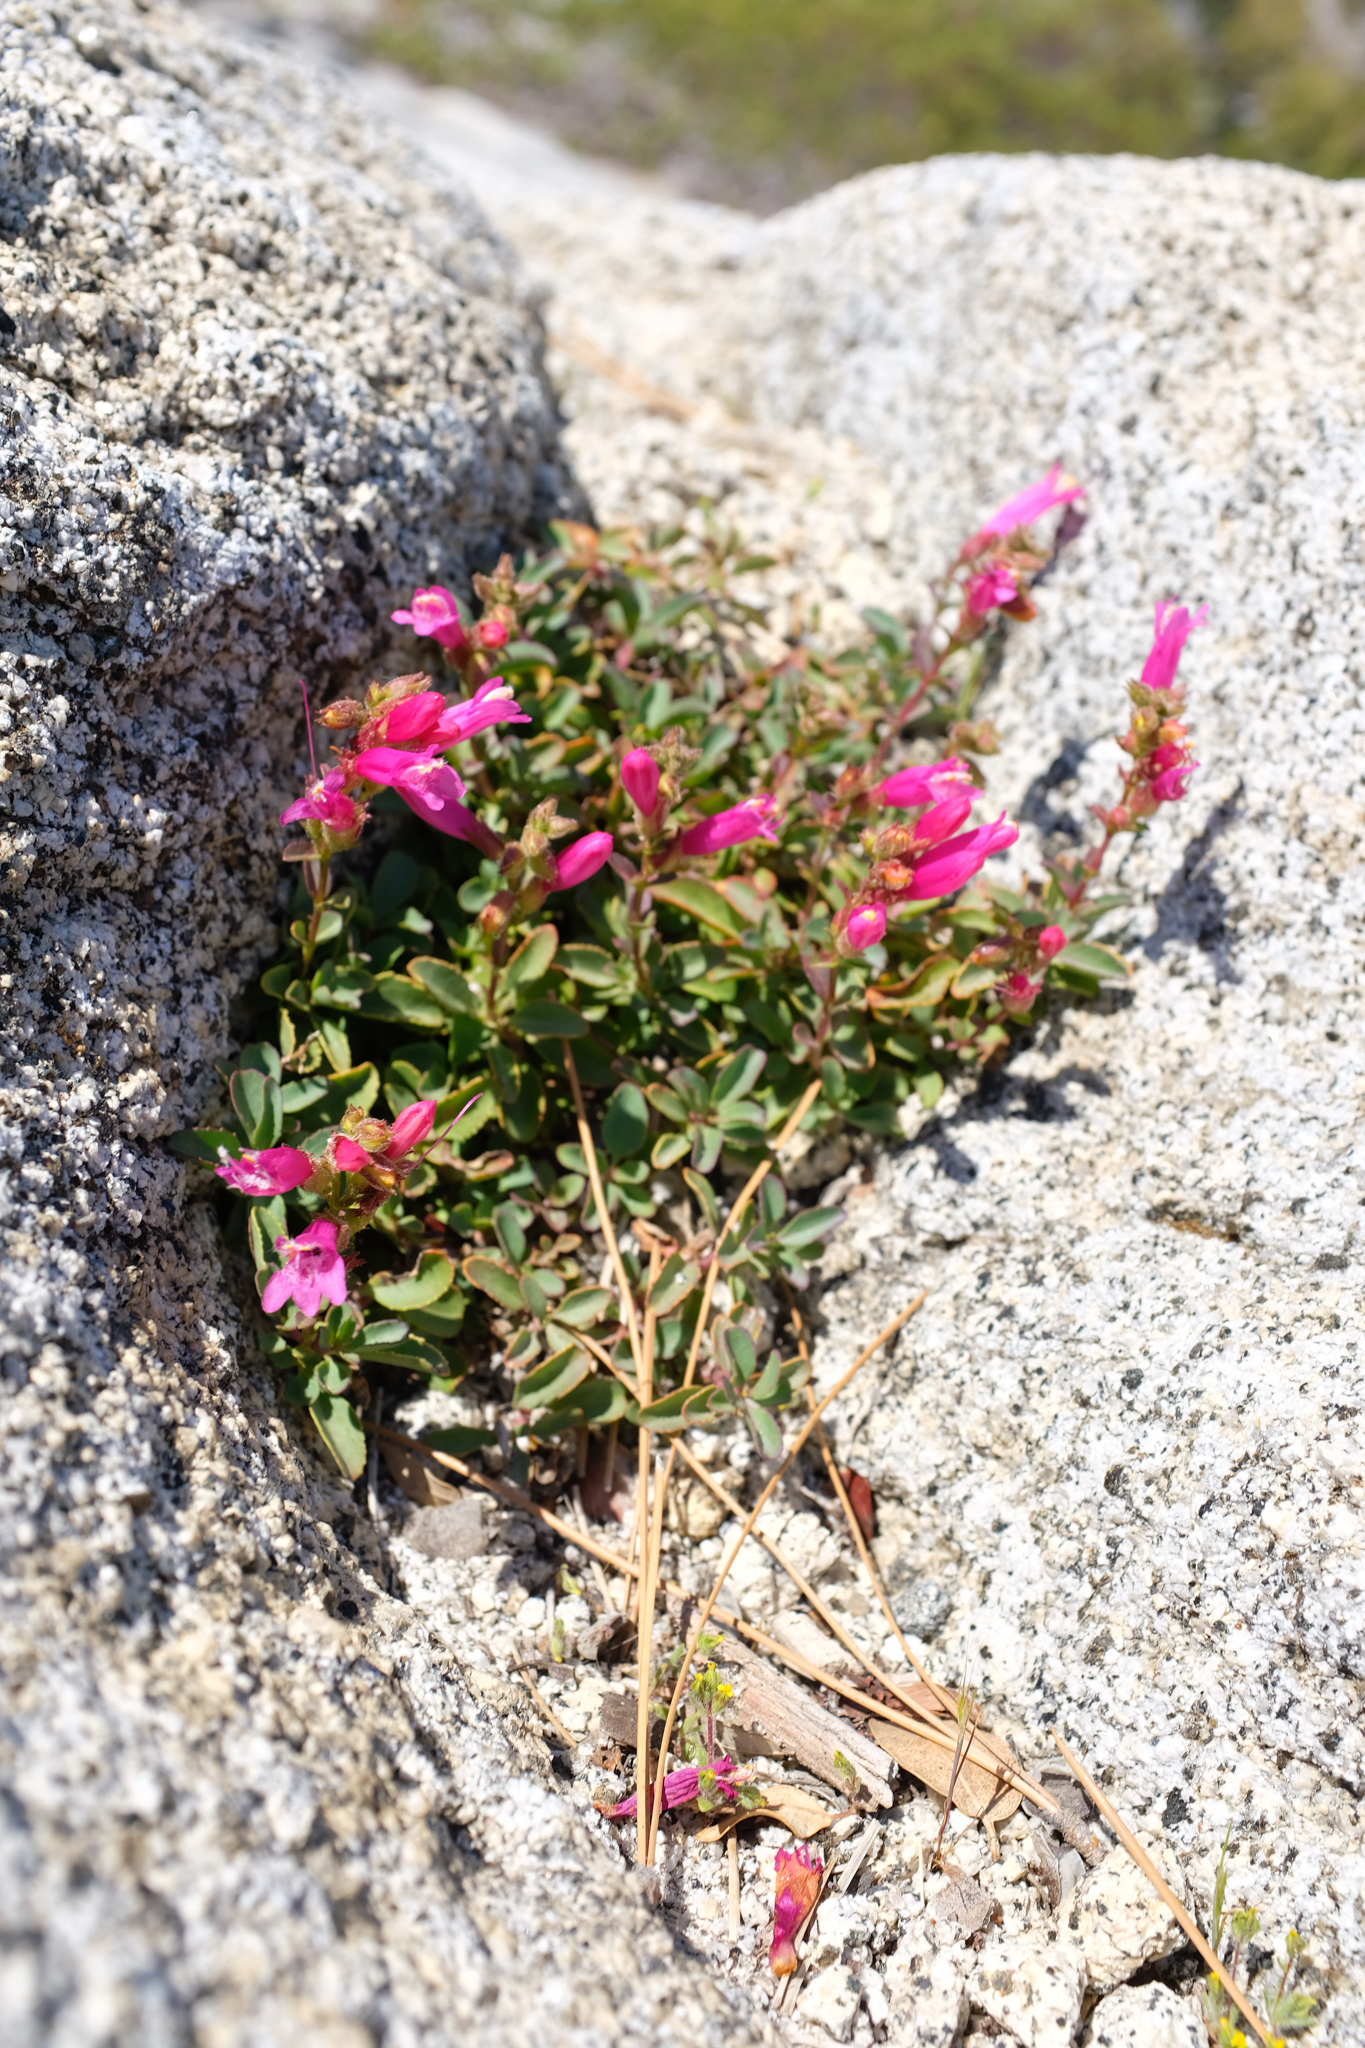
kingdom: Plantae
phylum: Tracheophyta
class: Magnoliopsida
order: Lamiales
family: Plantaginaceae
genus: Penstemon
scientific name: Penstemon newberryi
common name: Mountain-pride
